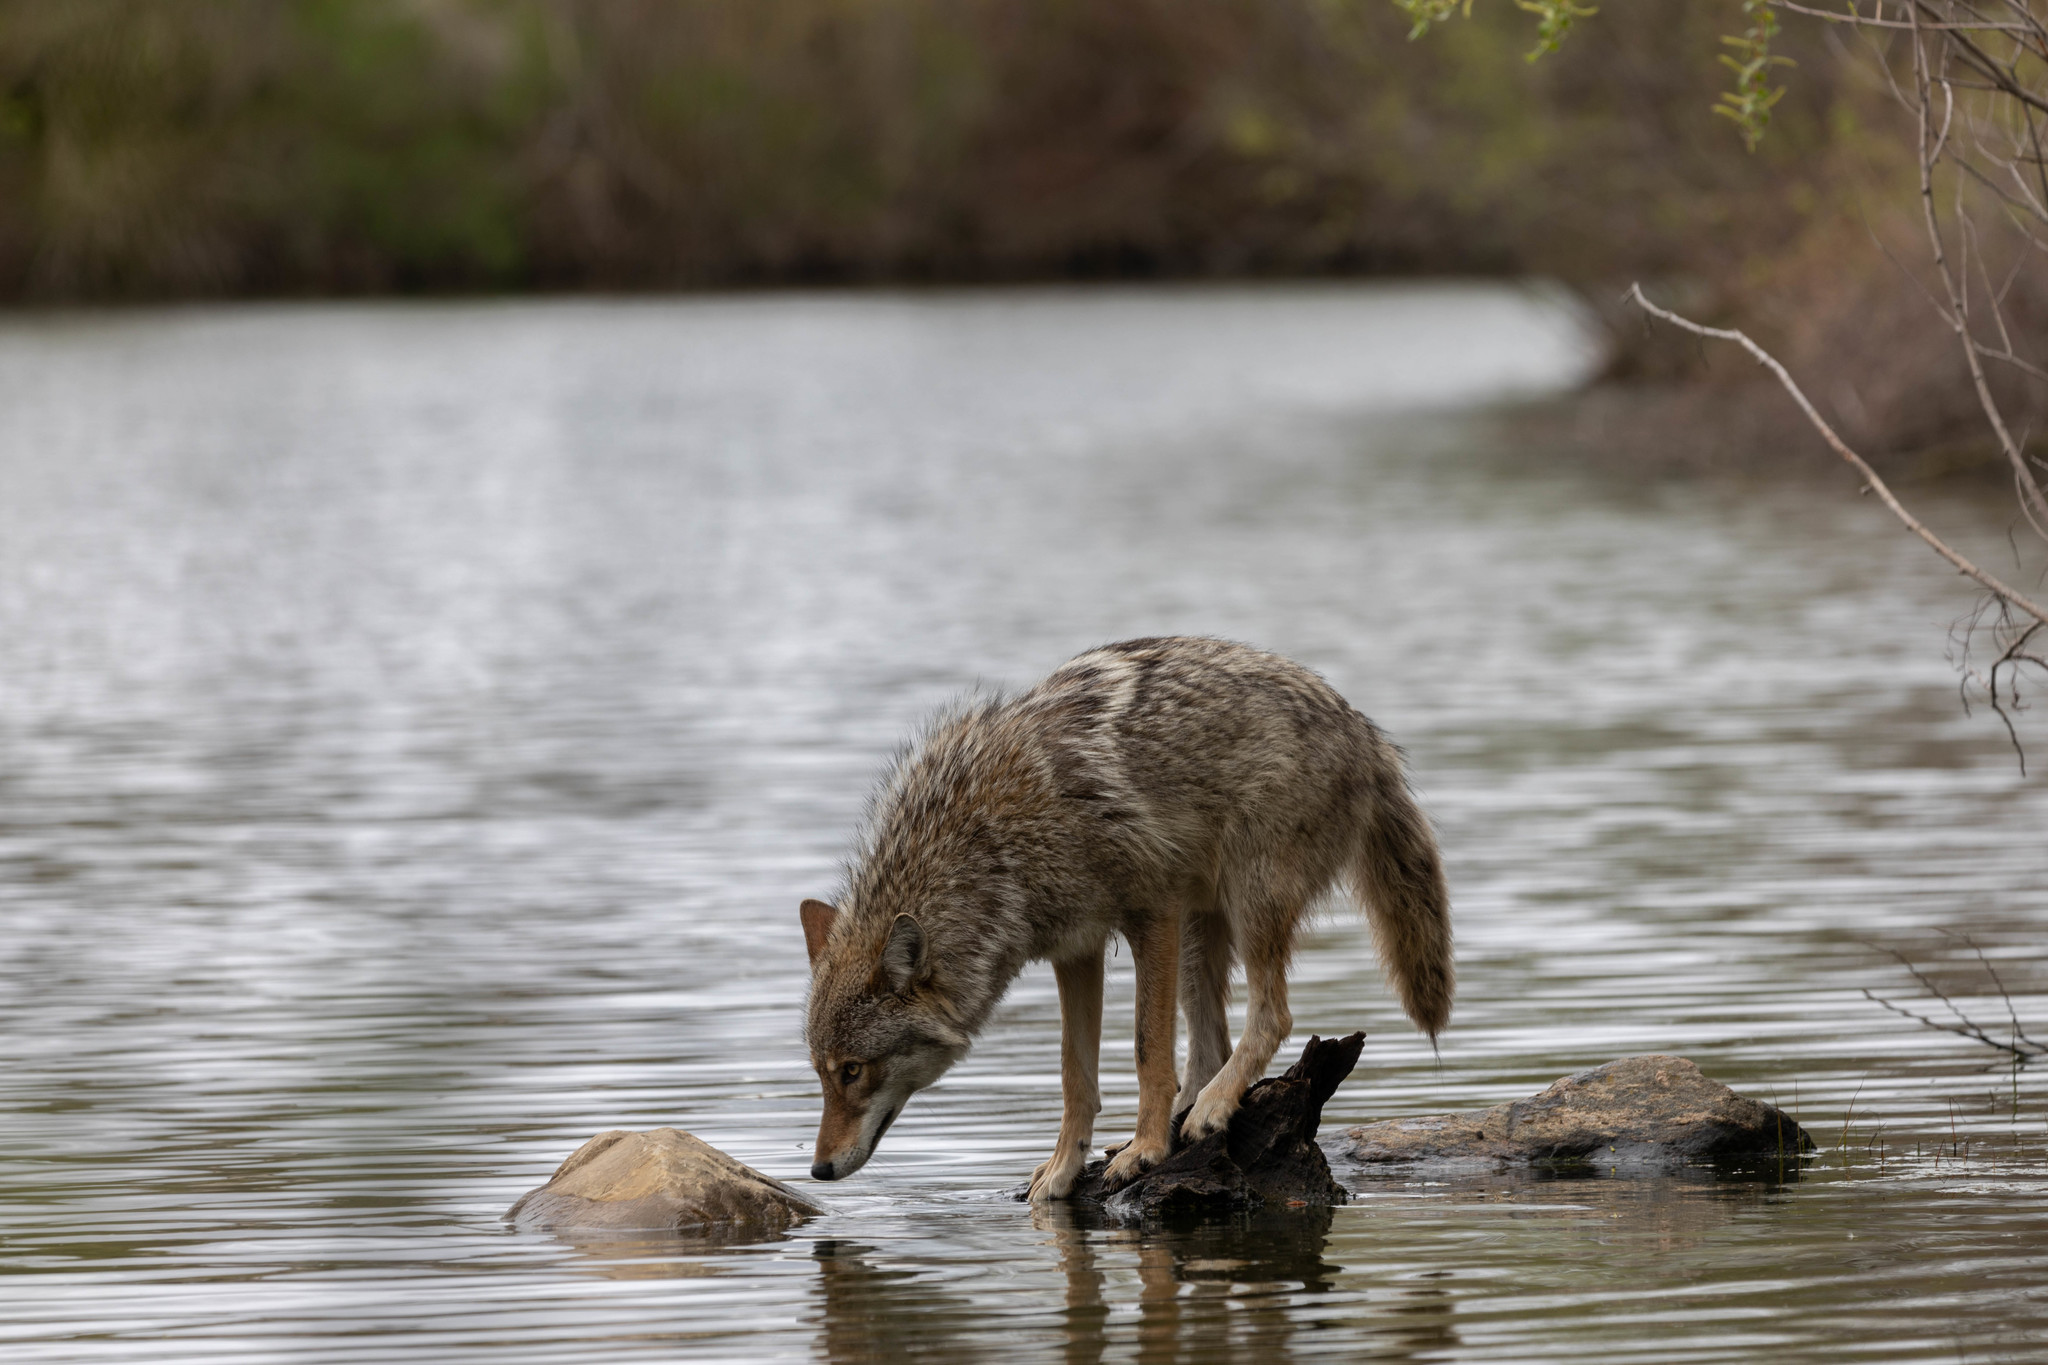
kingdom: Animalia
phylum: Chordata
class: Mammalia
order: Carnivora
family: Canidae
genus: Canis
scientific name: Canis latrans
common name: Coyote
